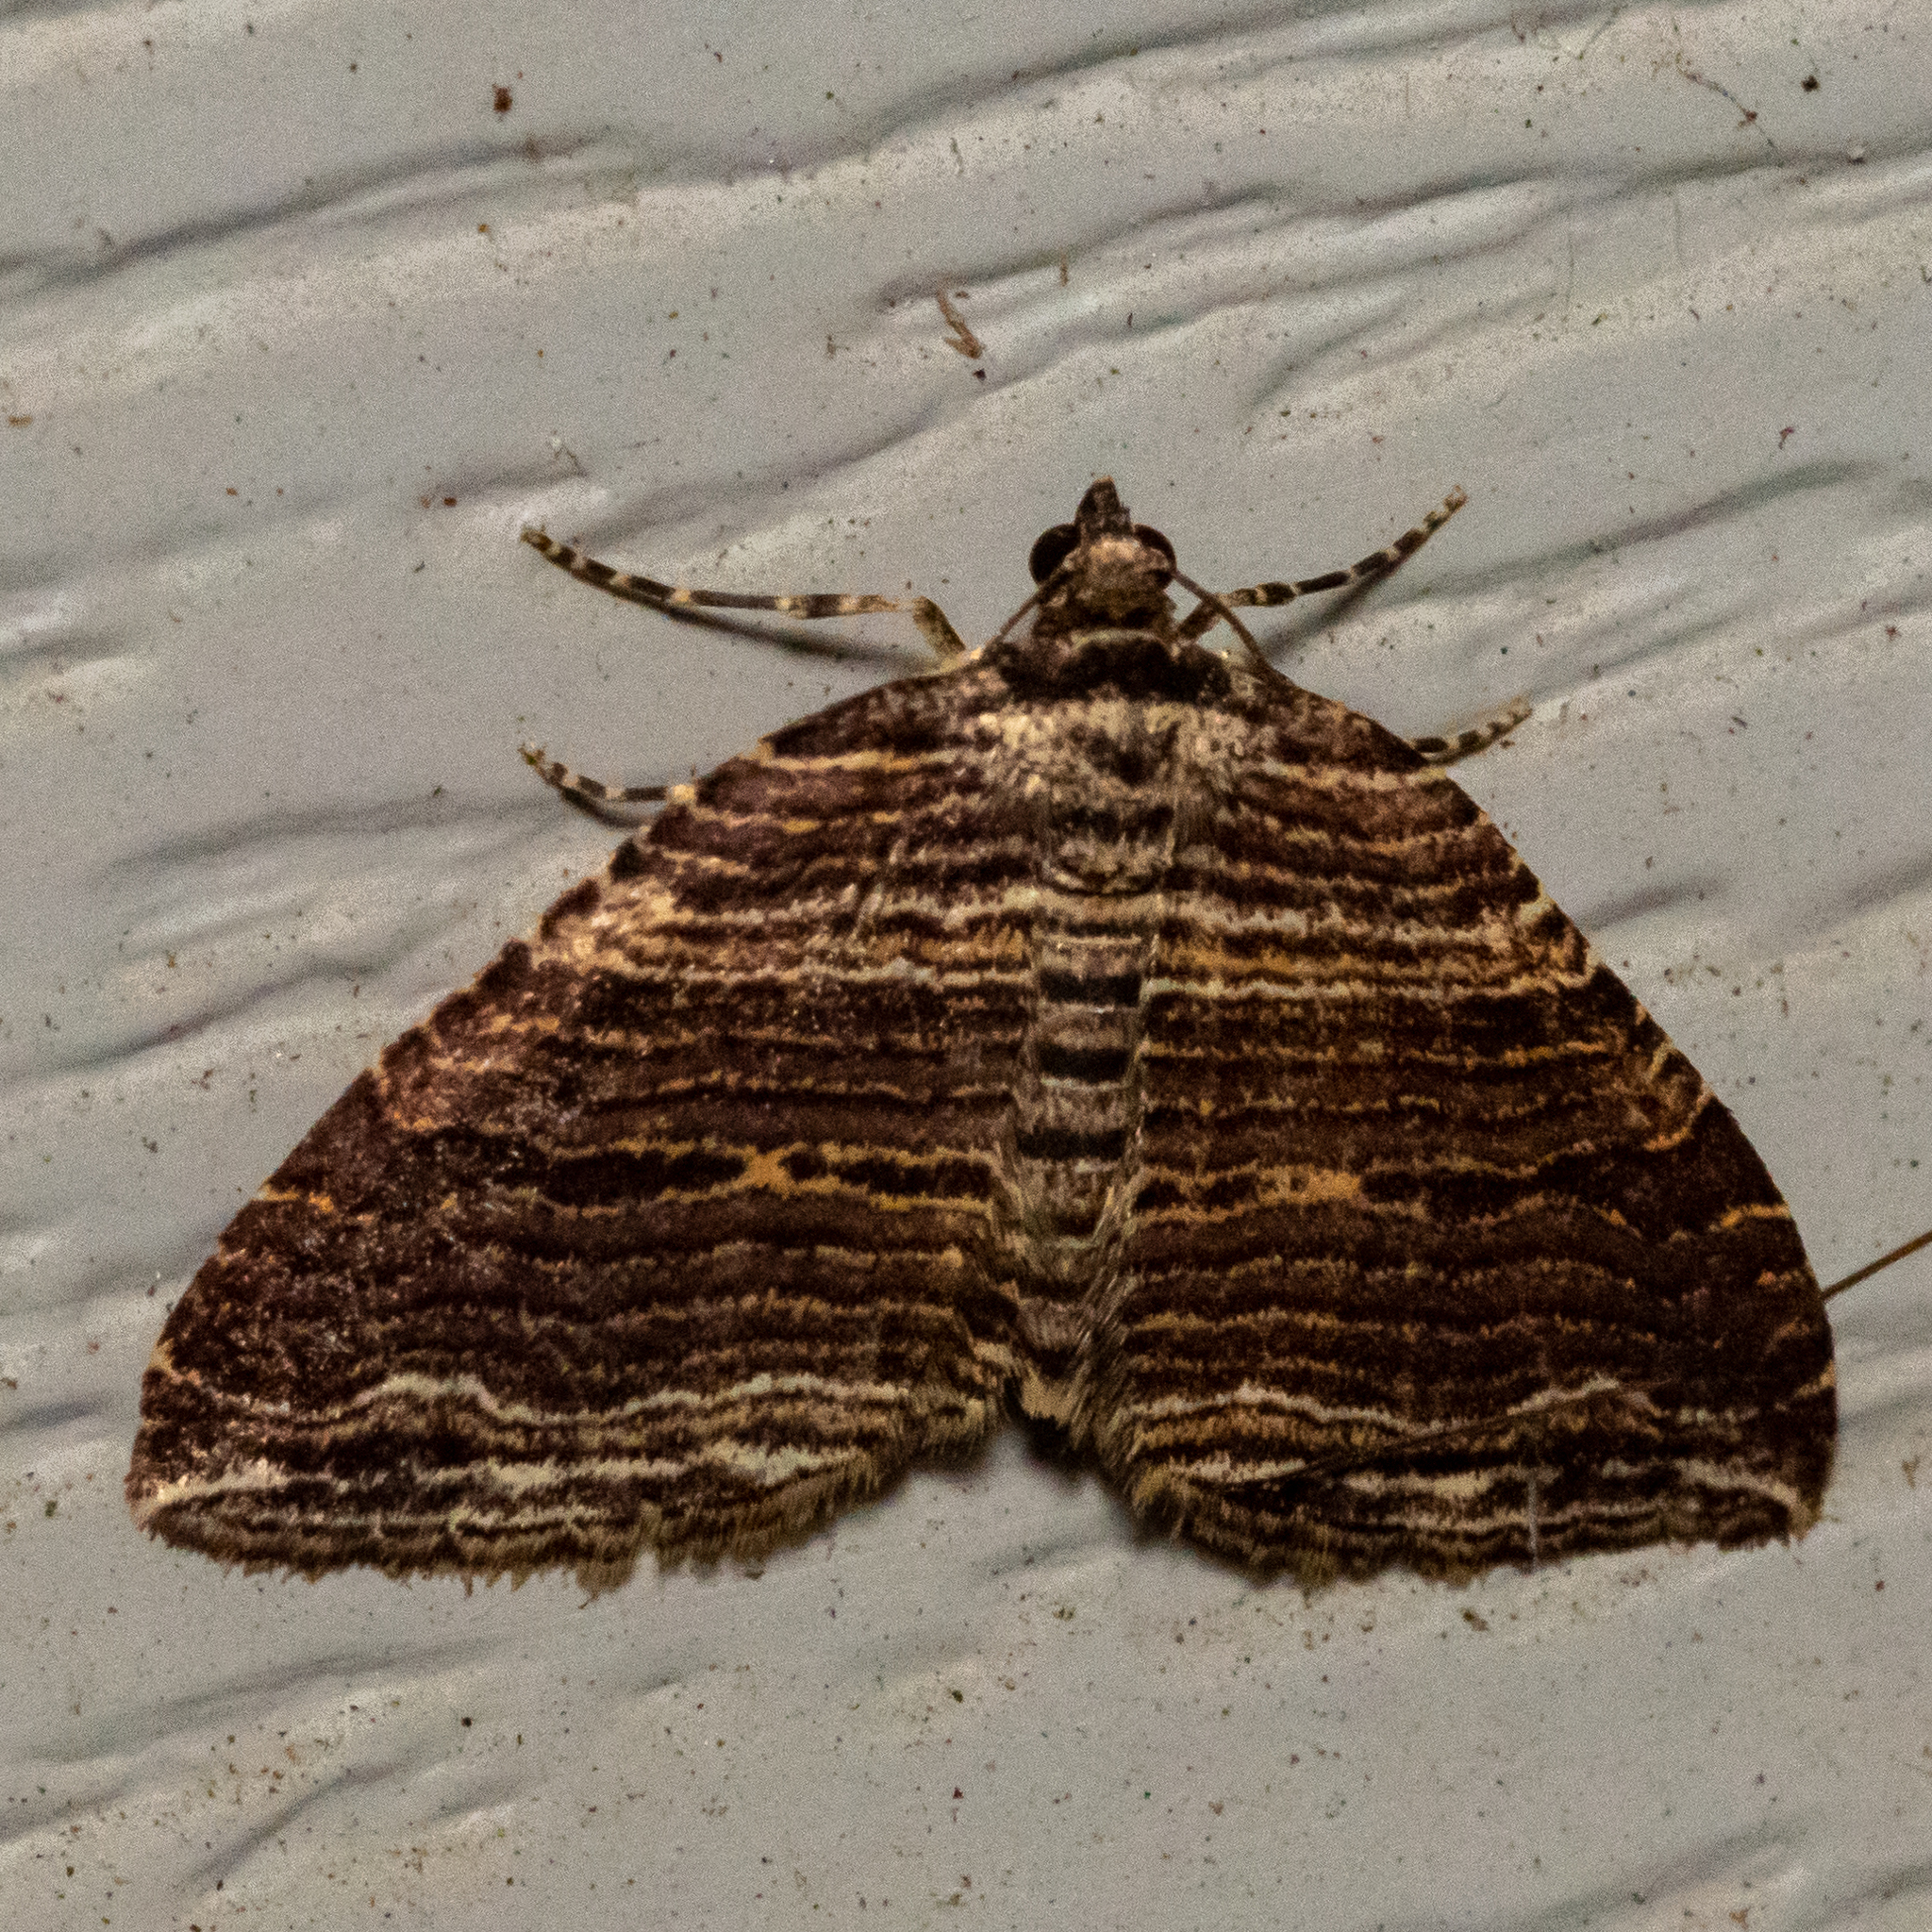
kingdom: Animalia
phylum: Arthropoda
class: Insecta
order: Lepidoptera
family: Geometridae
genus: Anticlea
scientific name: Anticlea multiferata
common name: Many-lined carpet
